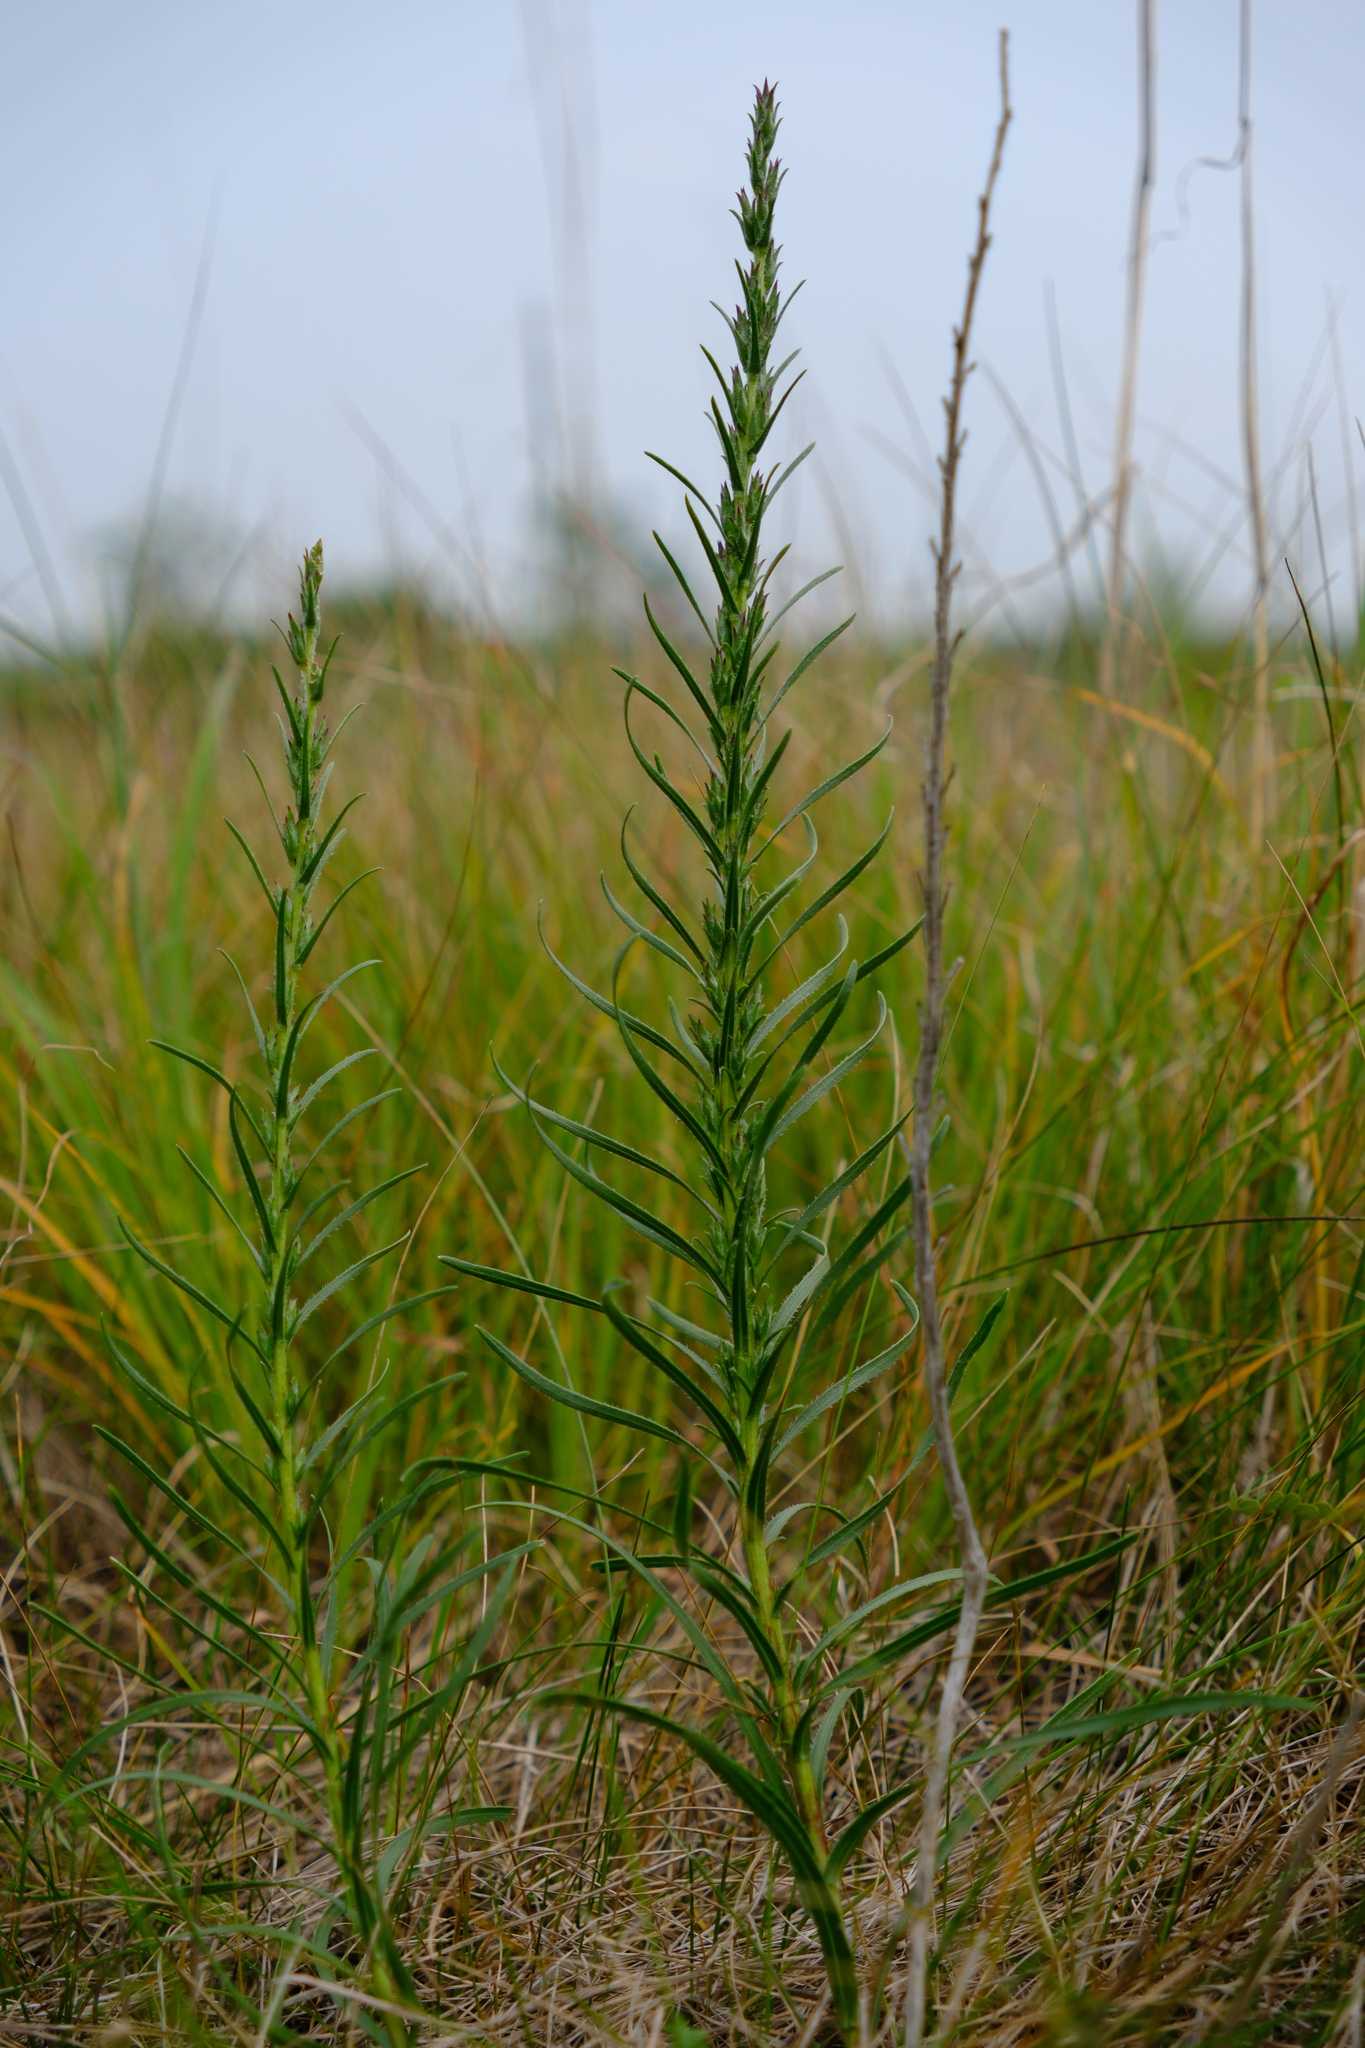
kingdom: Plantae
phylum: Tracheophyta
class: Magnoliopsida
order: Asterales
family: Asteraceae
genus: Liatris
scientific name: Liatris punctata
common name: Dotted gayfeather
